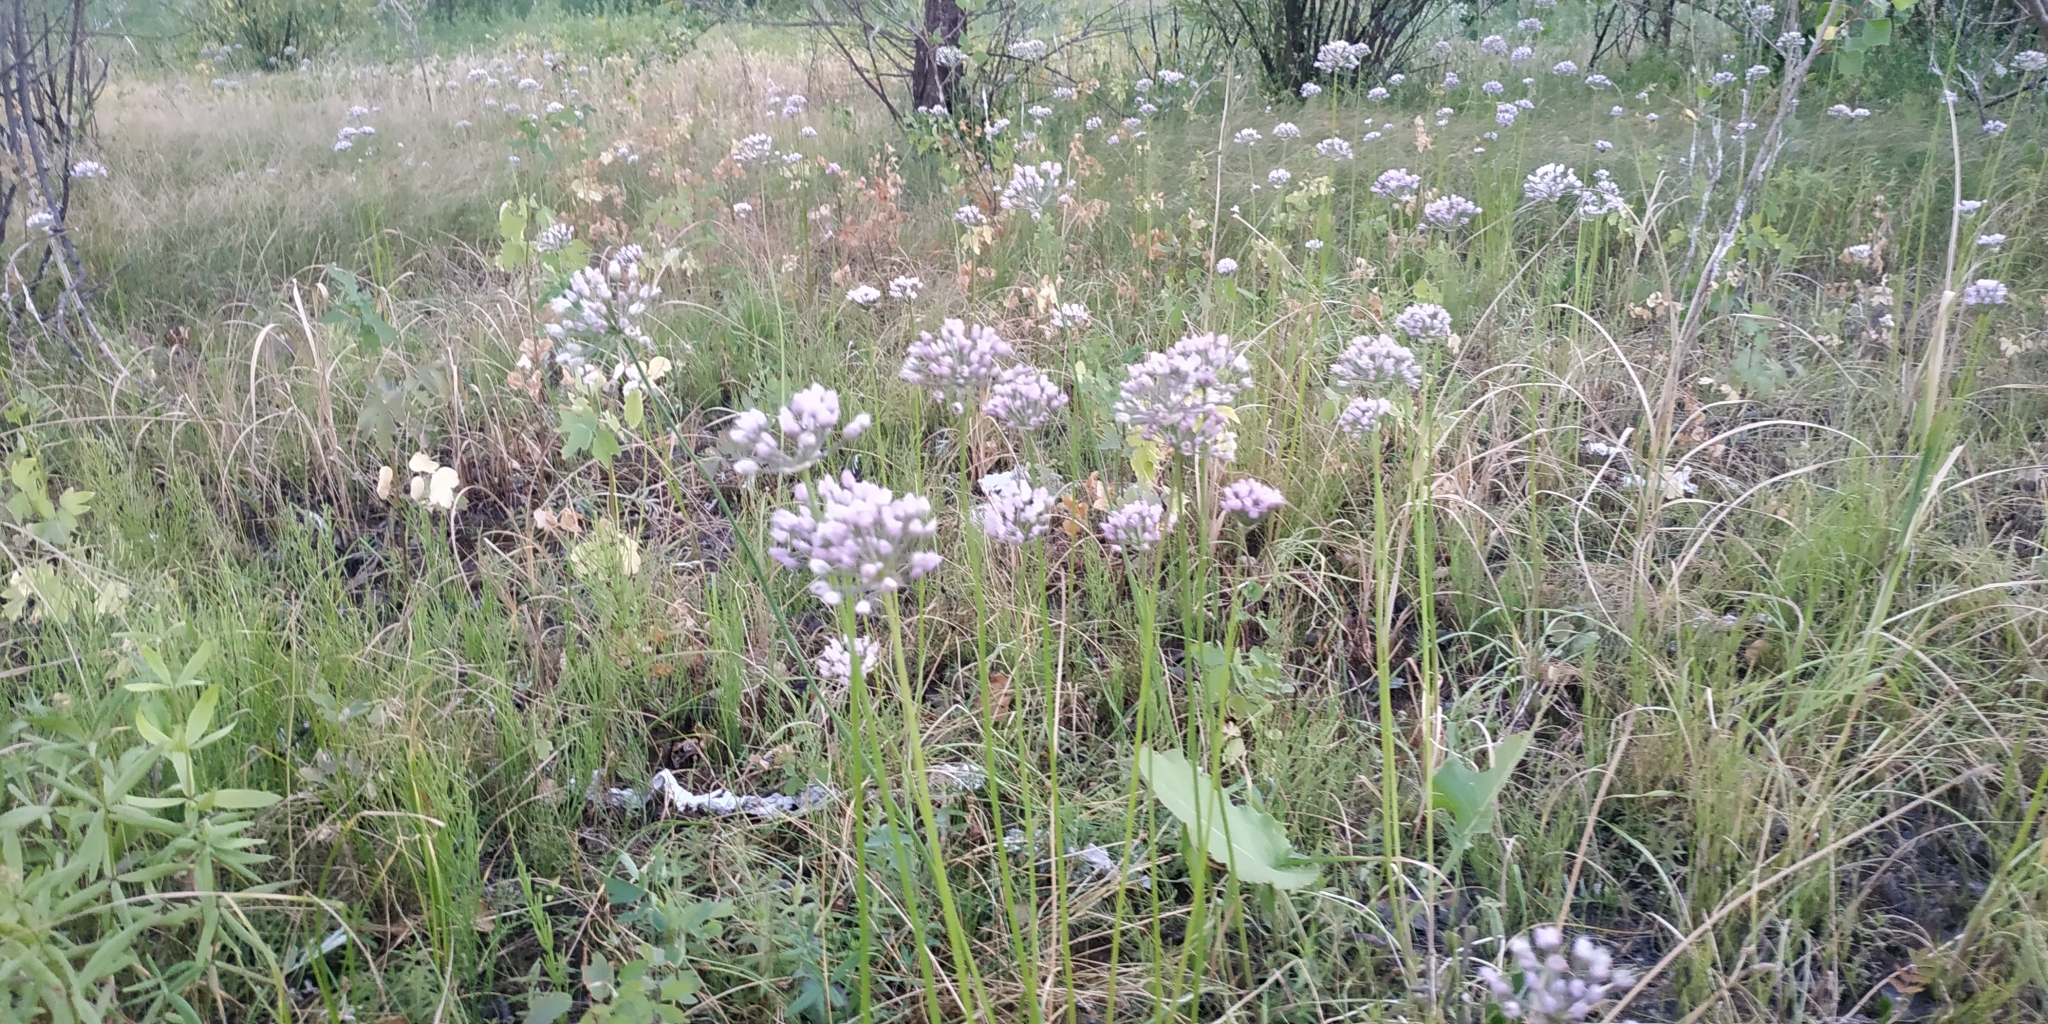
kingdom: Plantae
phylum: Tracheophyta
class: Liliopsida
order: Asparagales
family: Amaryllidaceae
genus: Allium
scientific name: Allium angulosum
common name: Mouse garlic
